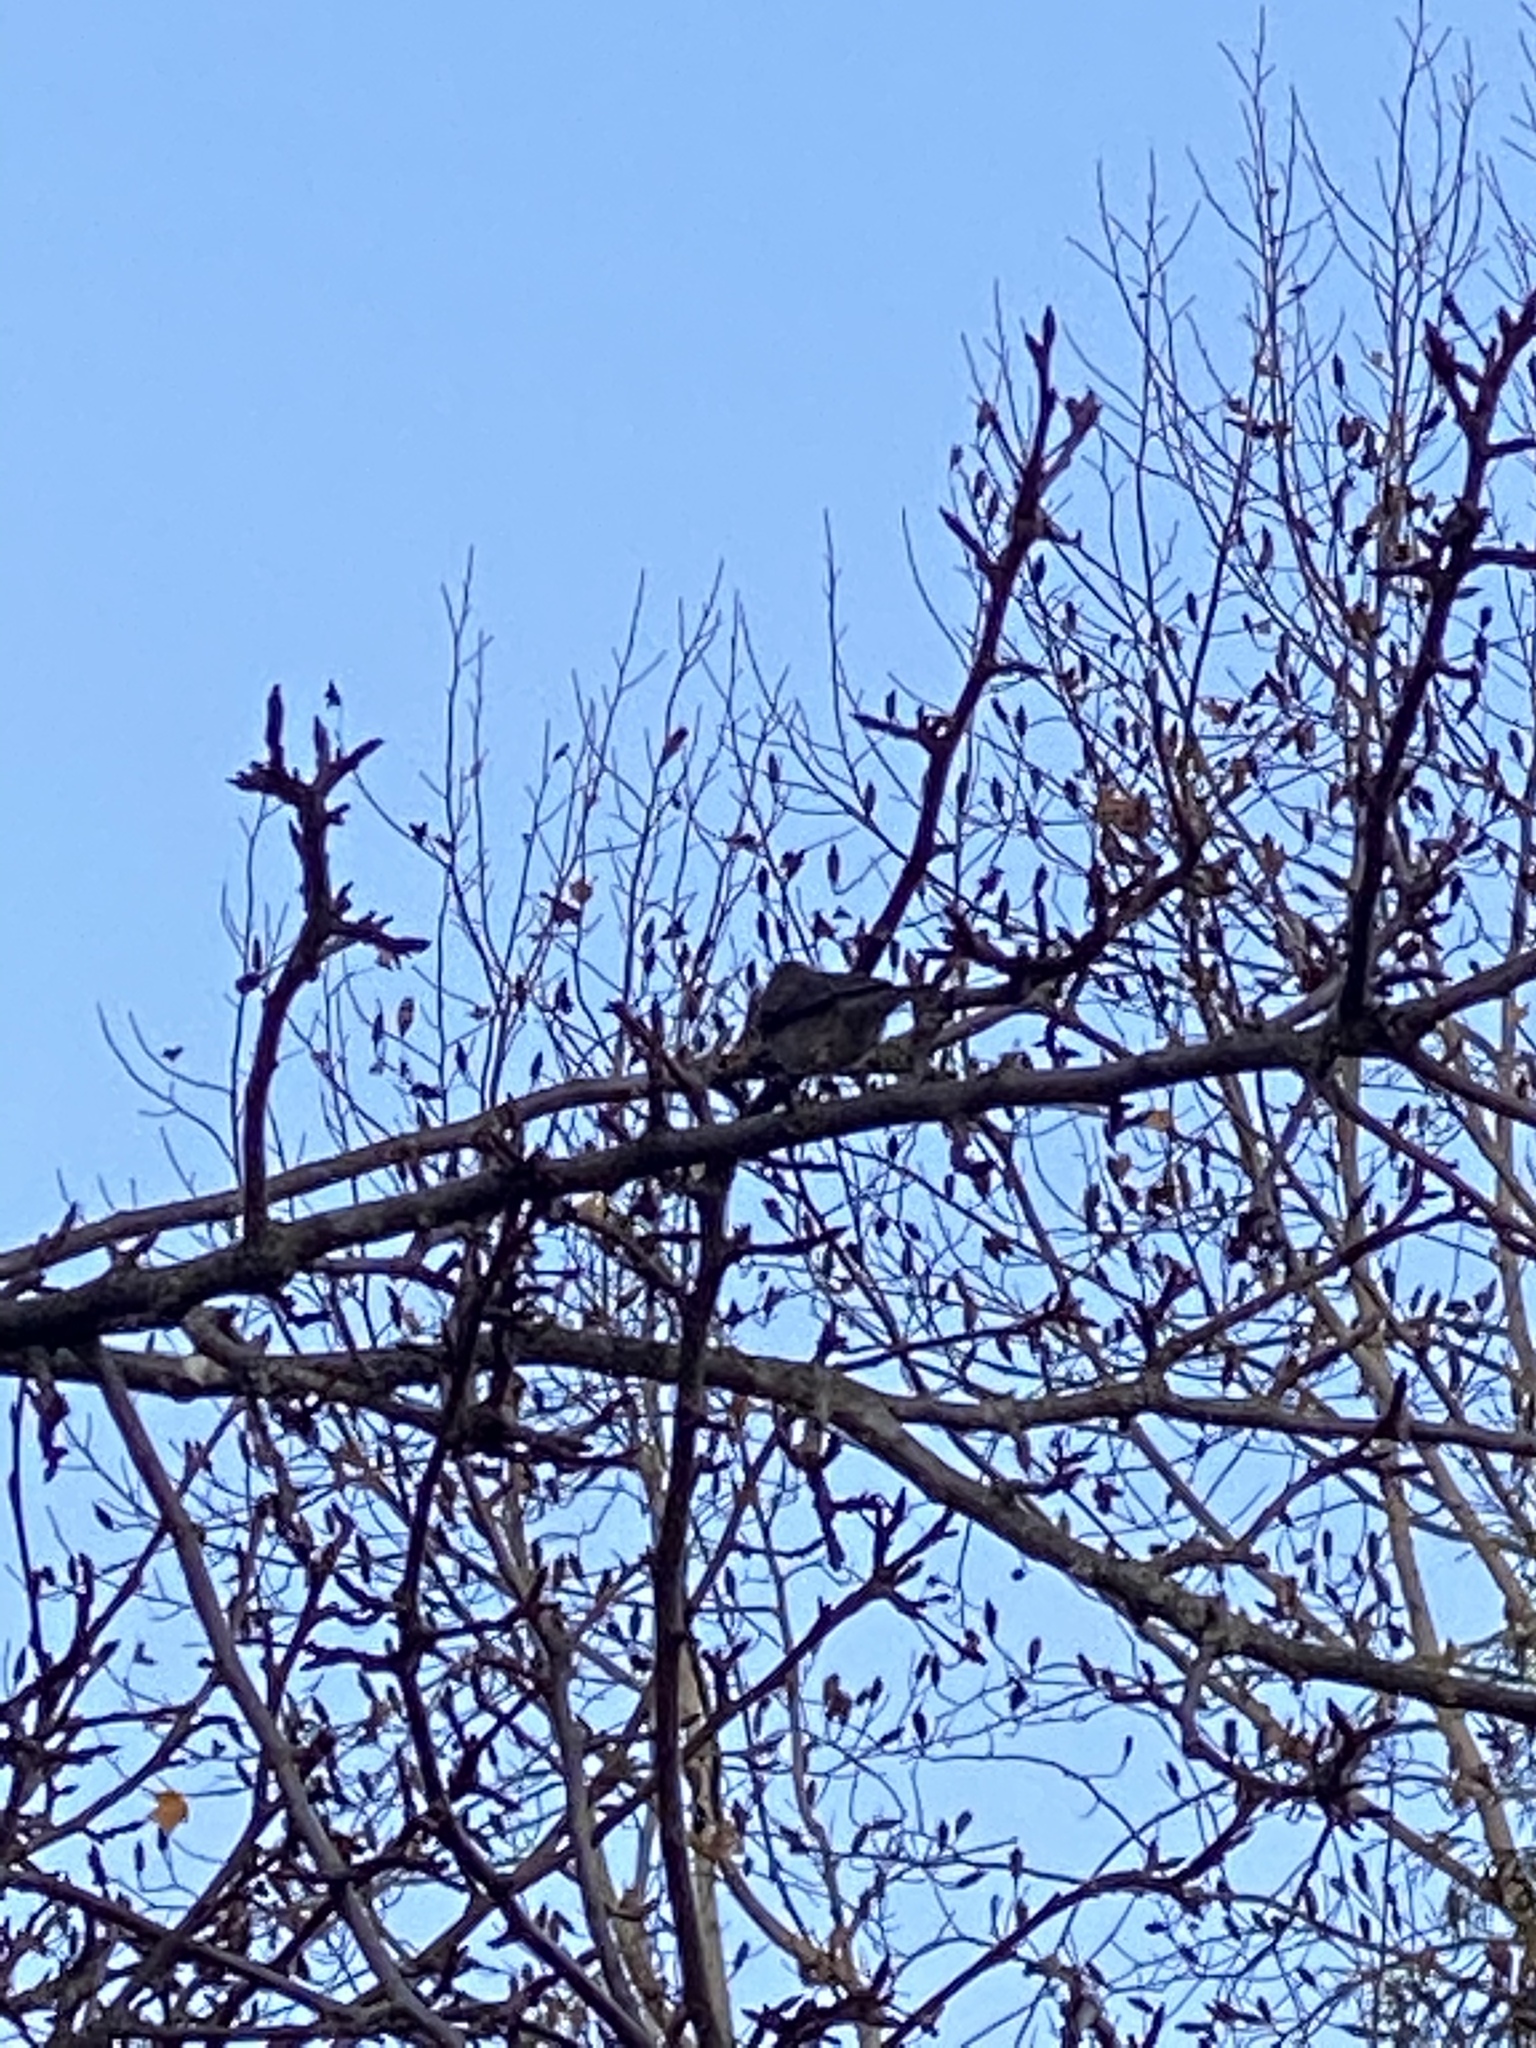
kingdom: Animalia
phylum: Chordata
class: Aves
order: Passeriformes
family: Passerellidae
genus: Junco
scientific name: Junco hyemalis
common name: Dark-eyed junco
